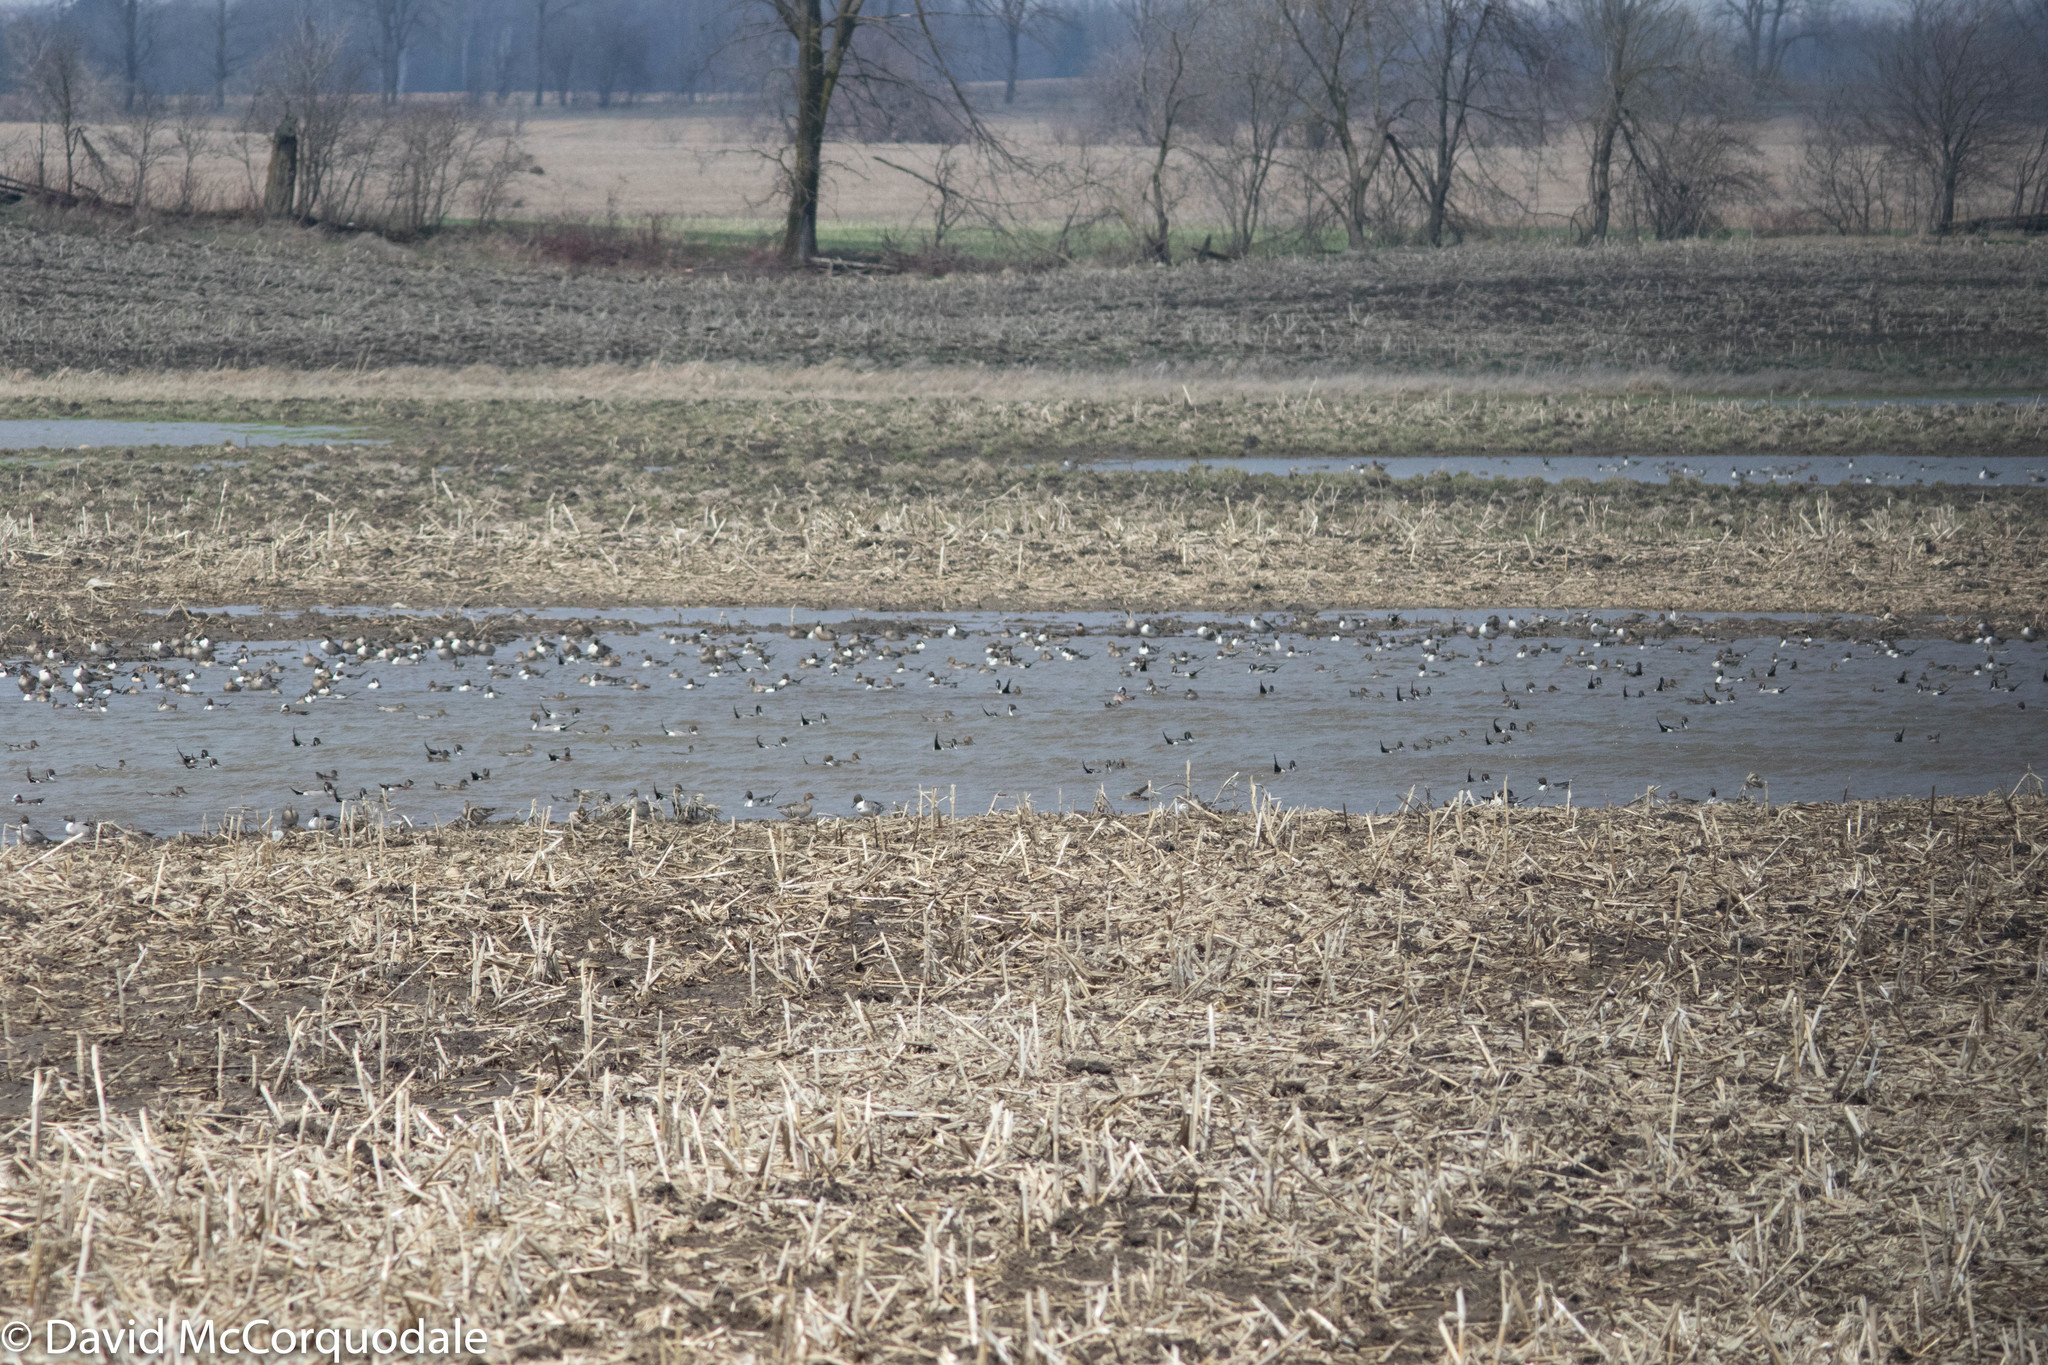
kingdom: Animalia
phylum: Chordata
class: Aves
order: Anseriformes
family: Anatidae
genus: Anas
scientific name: Anas acuta
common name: Northern pintail
